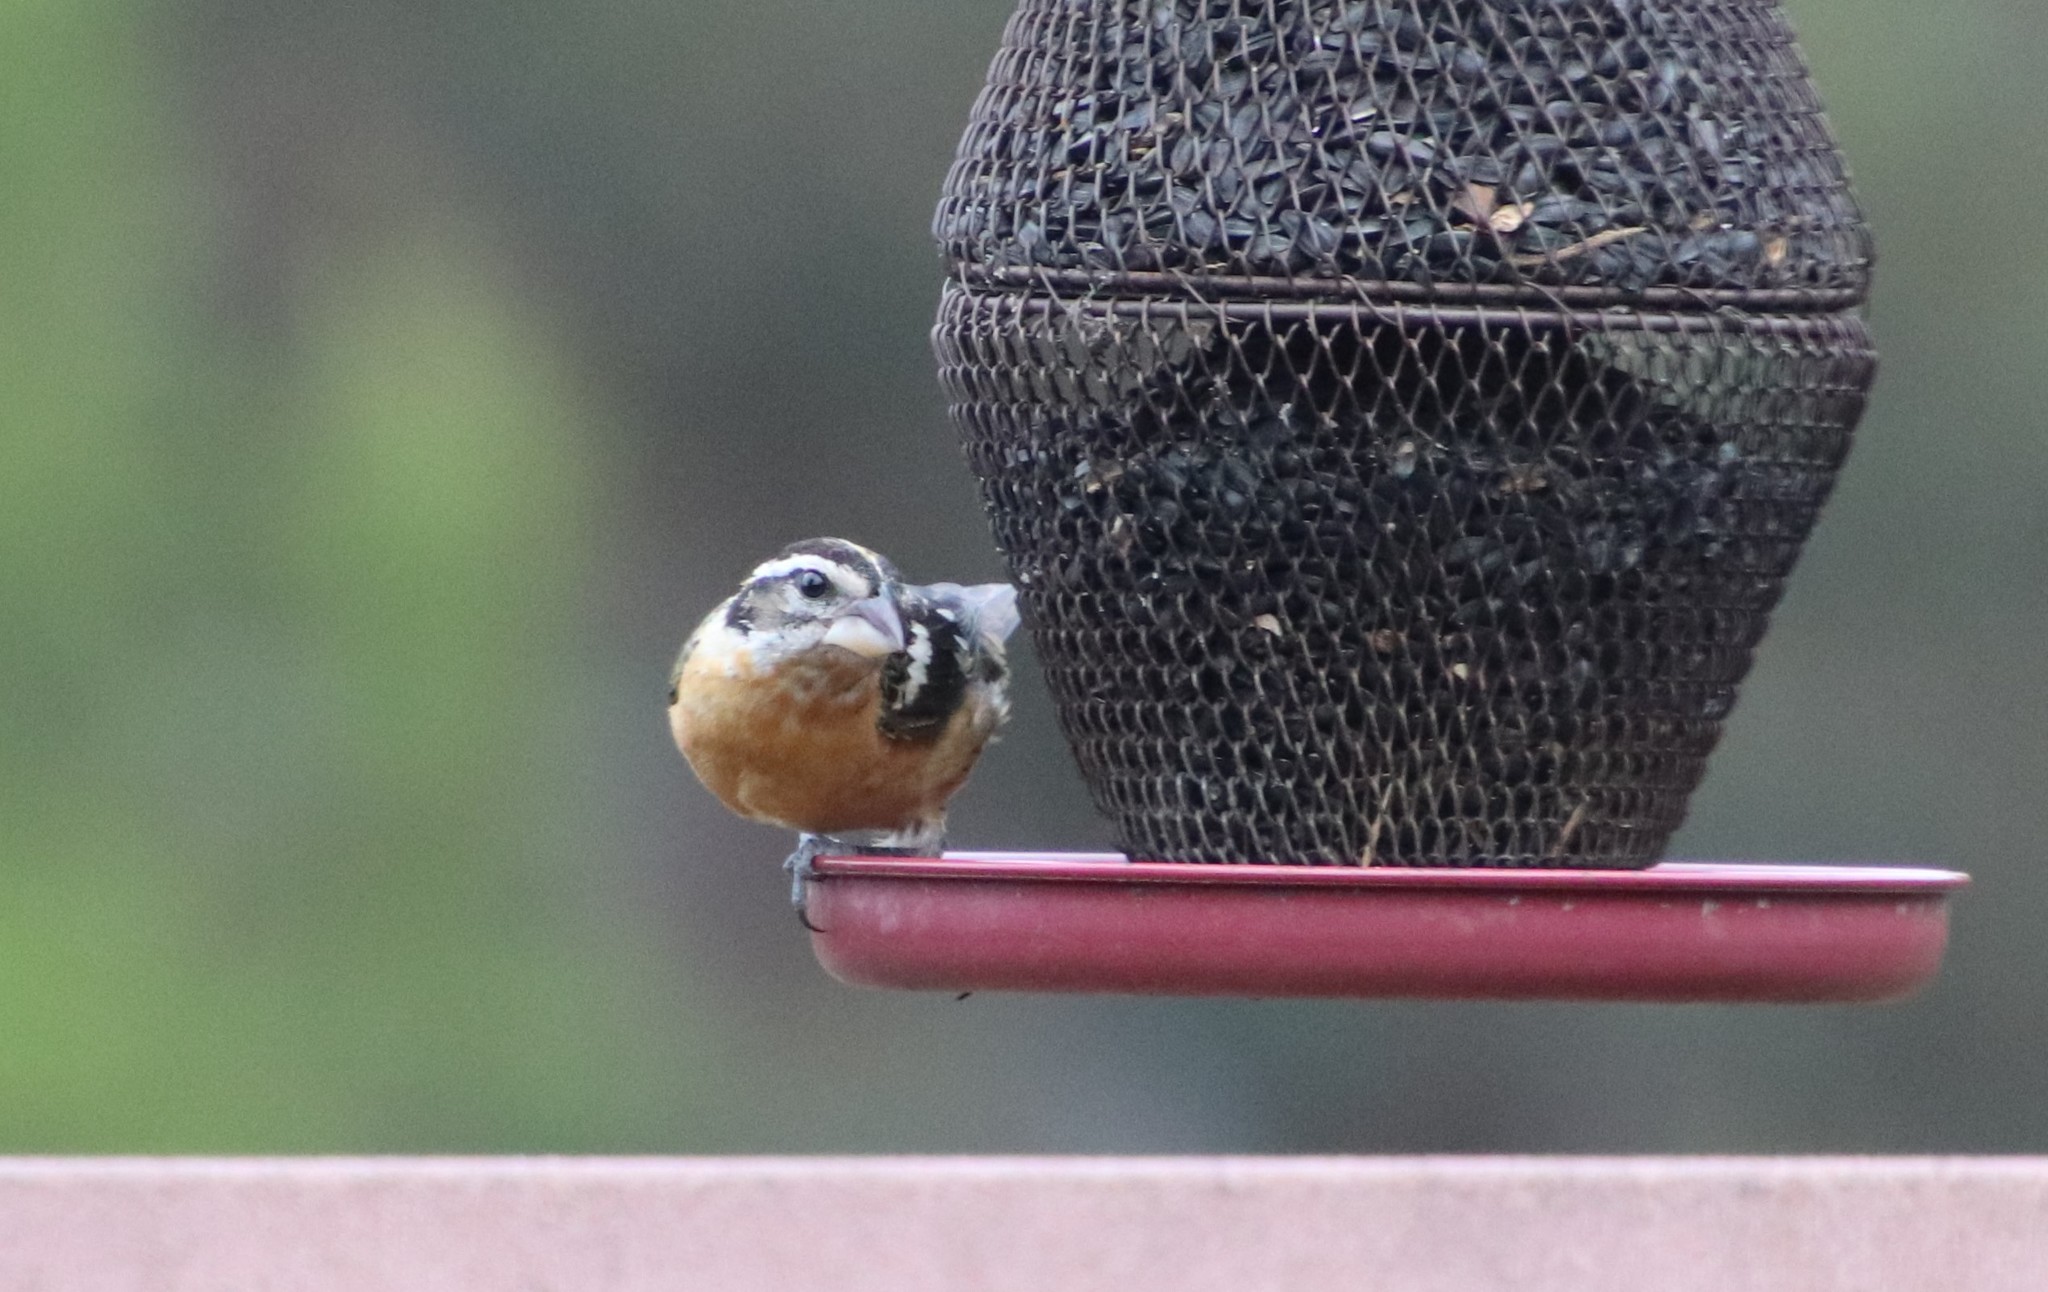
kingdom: Animalia
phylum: Chordata
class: Aves
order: Passeriformes
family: Cardinalidae
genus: Pheucticus
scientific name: Pheucticus melanocephalus
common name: Black-headed grosbeak
